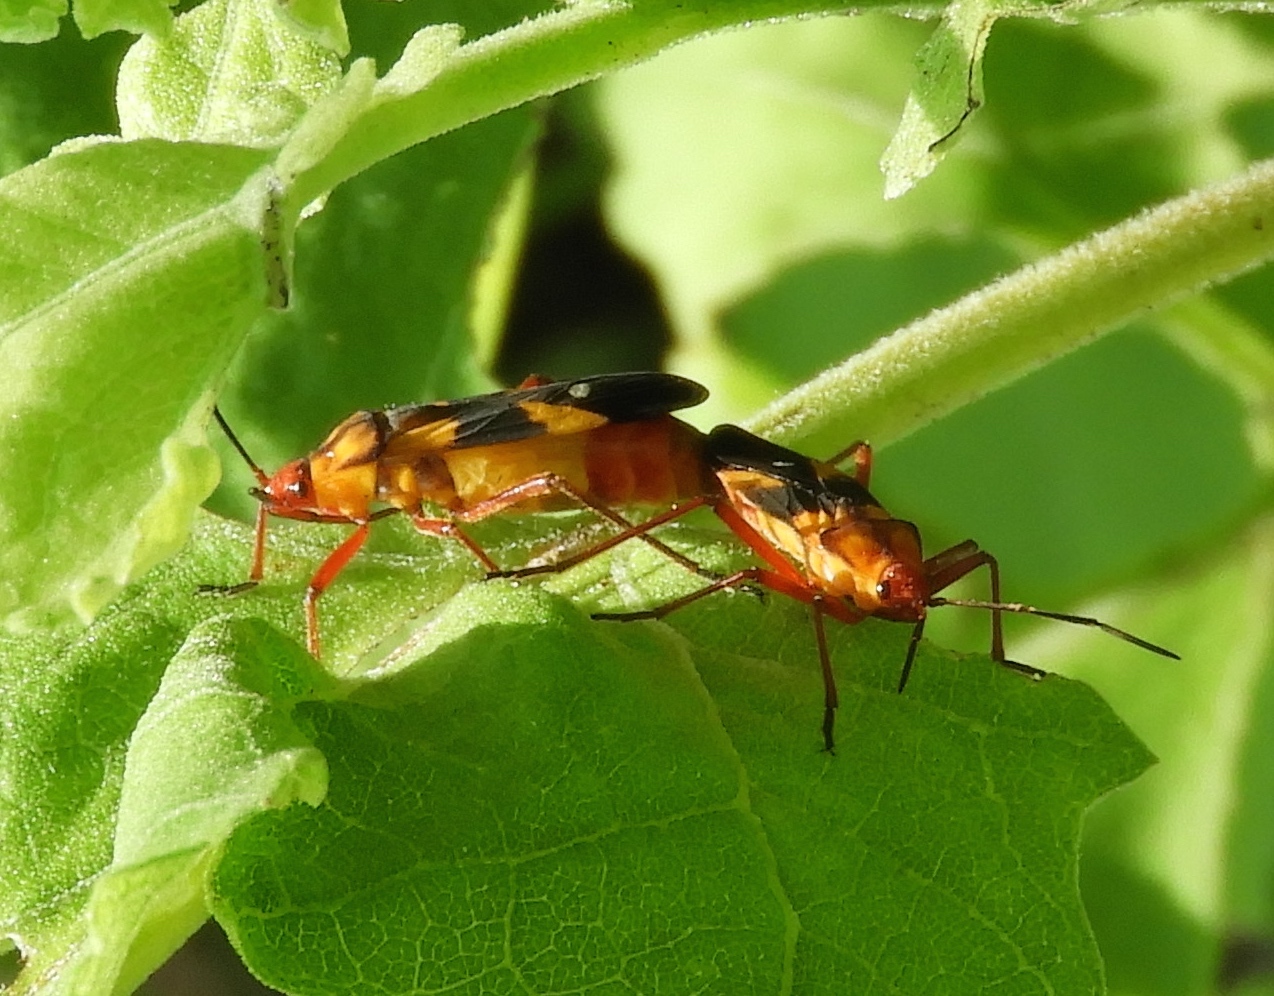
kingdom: Animalia
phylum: Arthropoda
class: Insecta
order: Hemiptera
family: Lygaeidae
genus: Oncopeltus
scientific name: Oncopeltus guttaloides
